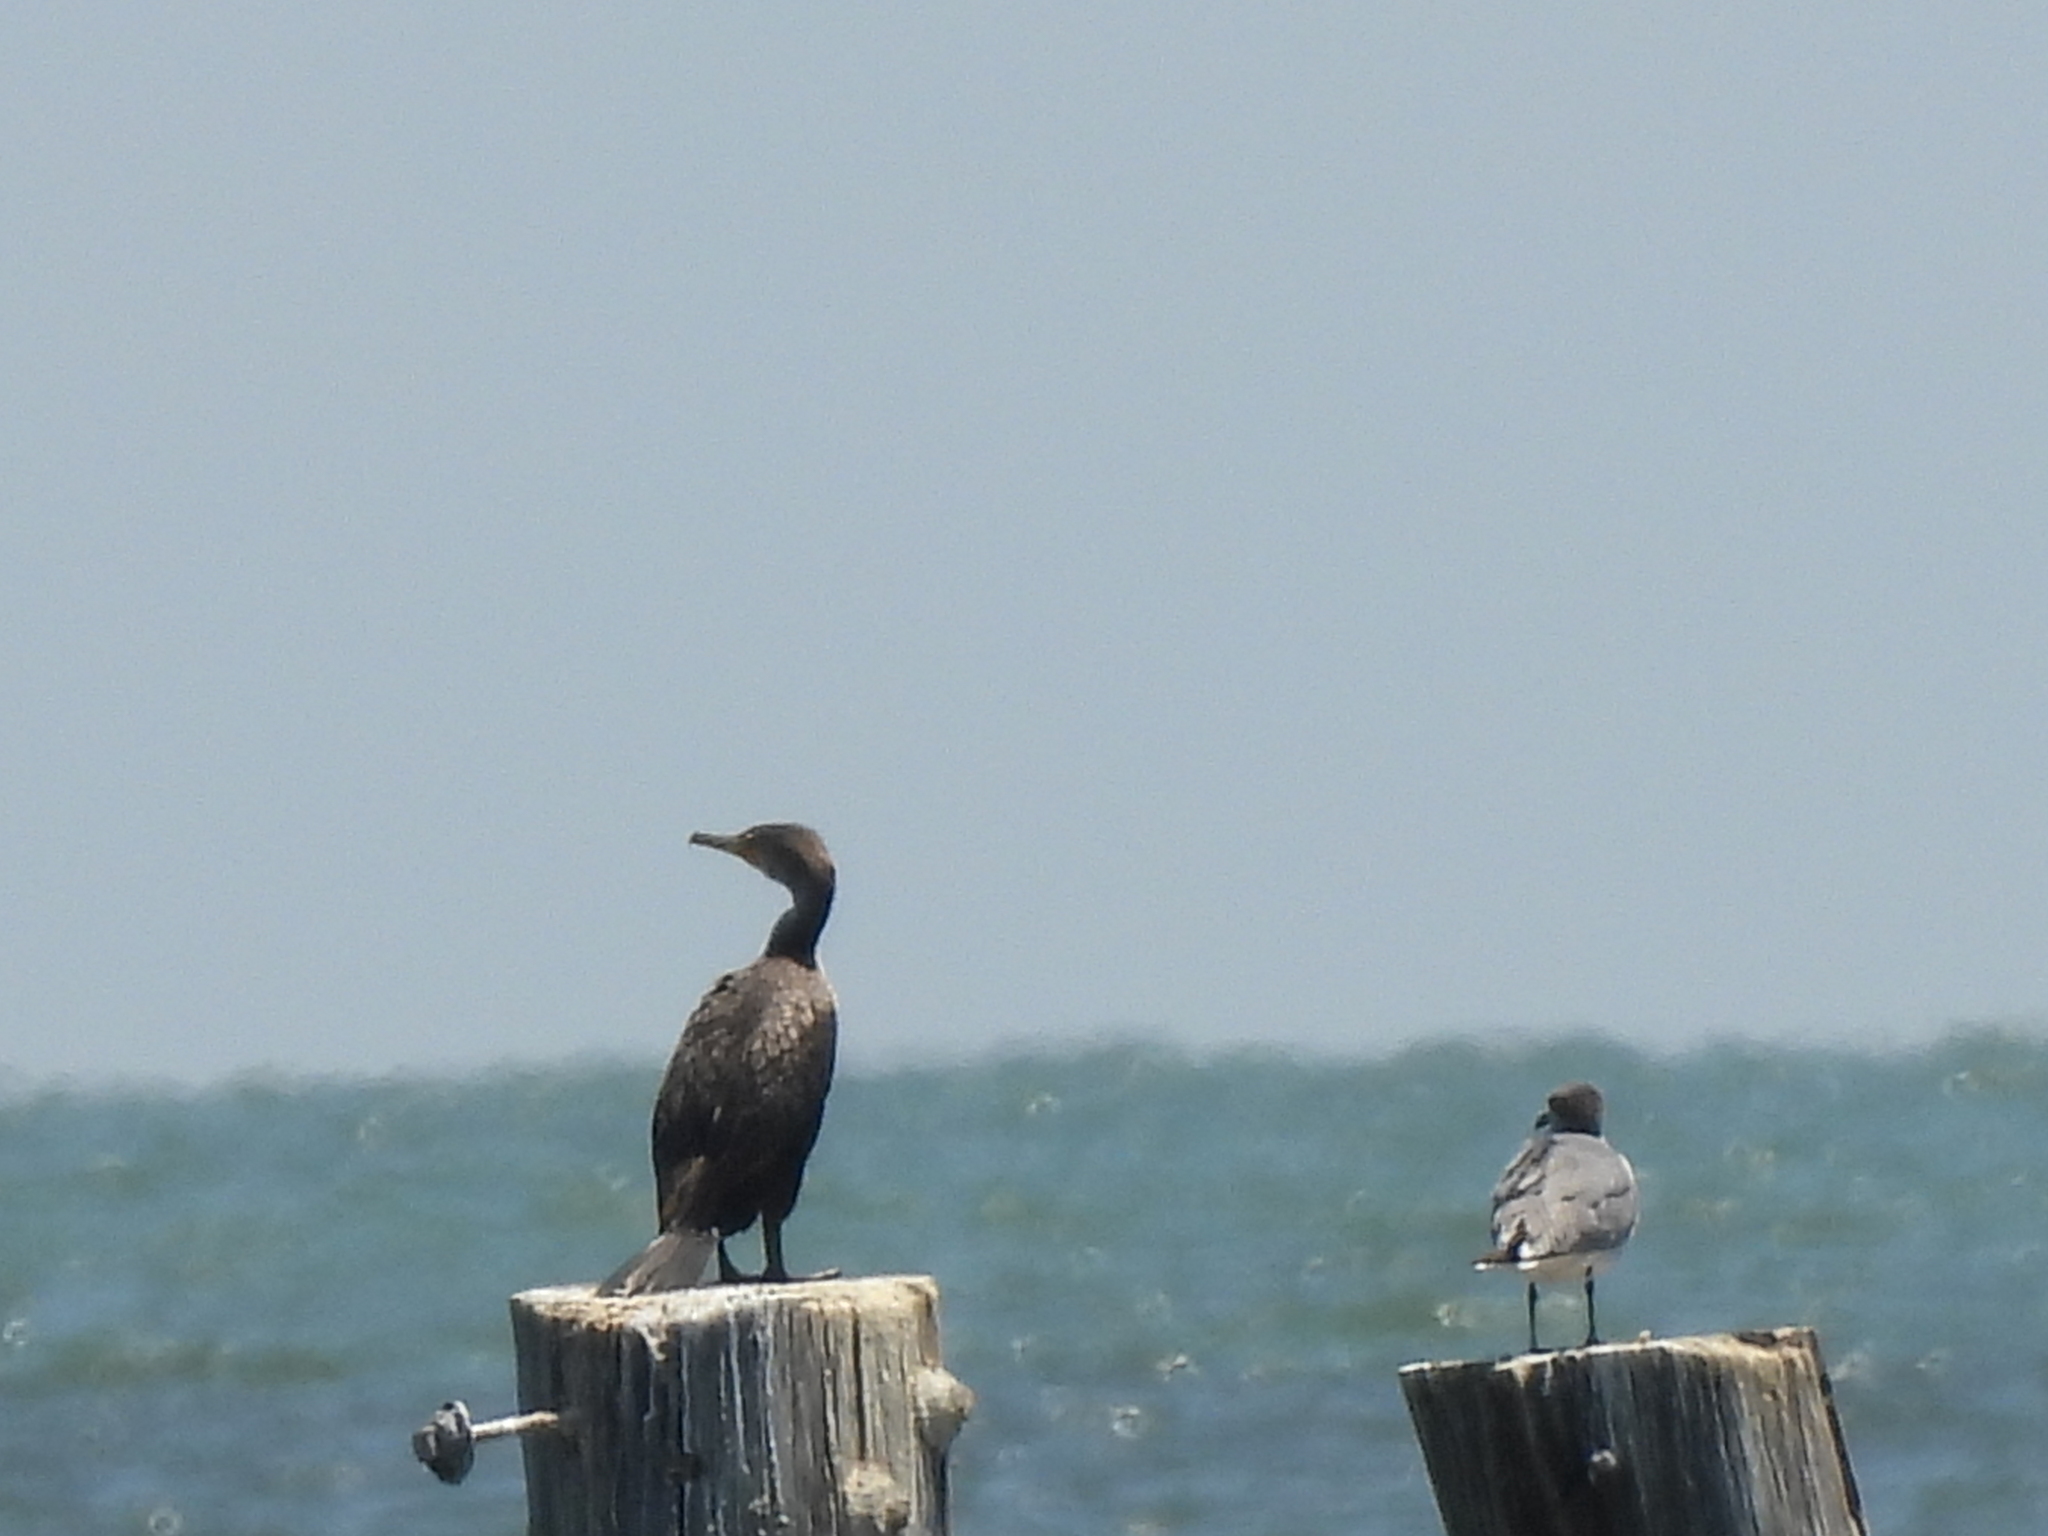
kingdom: Animalia
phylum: Chordata
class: Aves
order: Suliformes
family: Phalacrocoracidae
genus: Phalacrocorax
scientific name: Phalacrocorax auritus
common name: Double-crested cormorant
